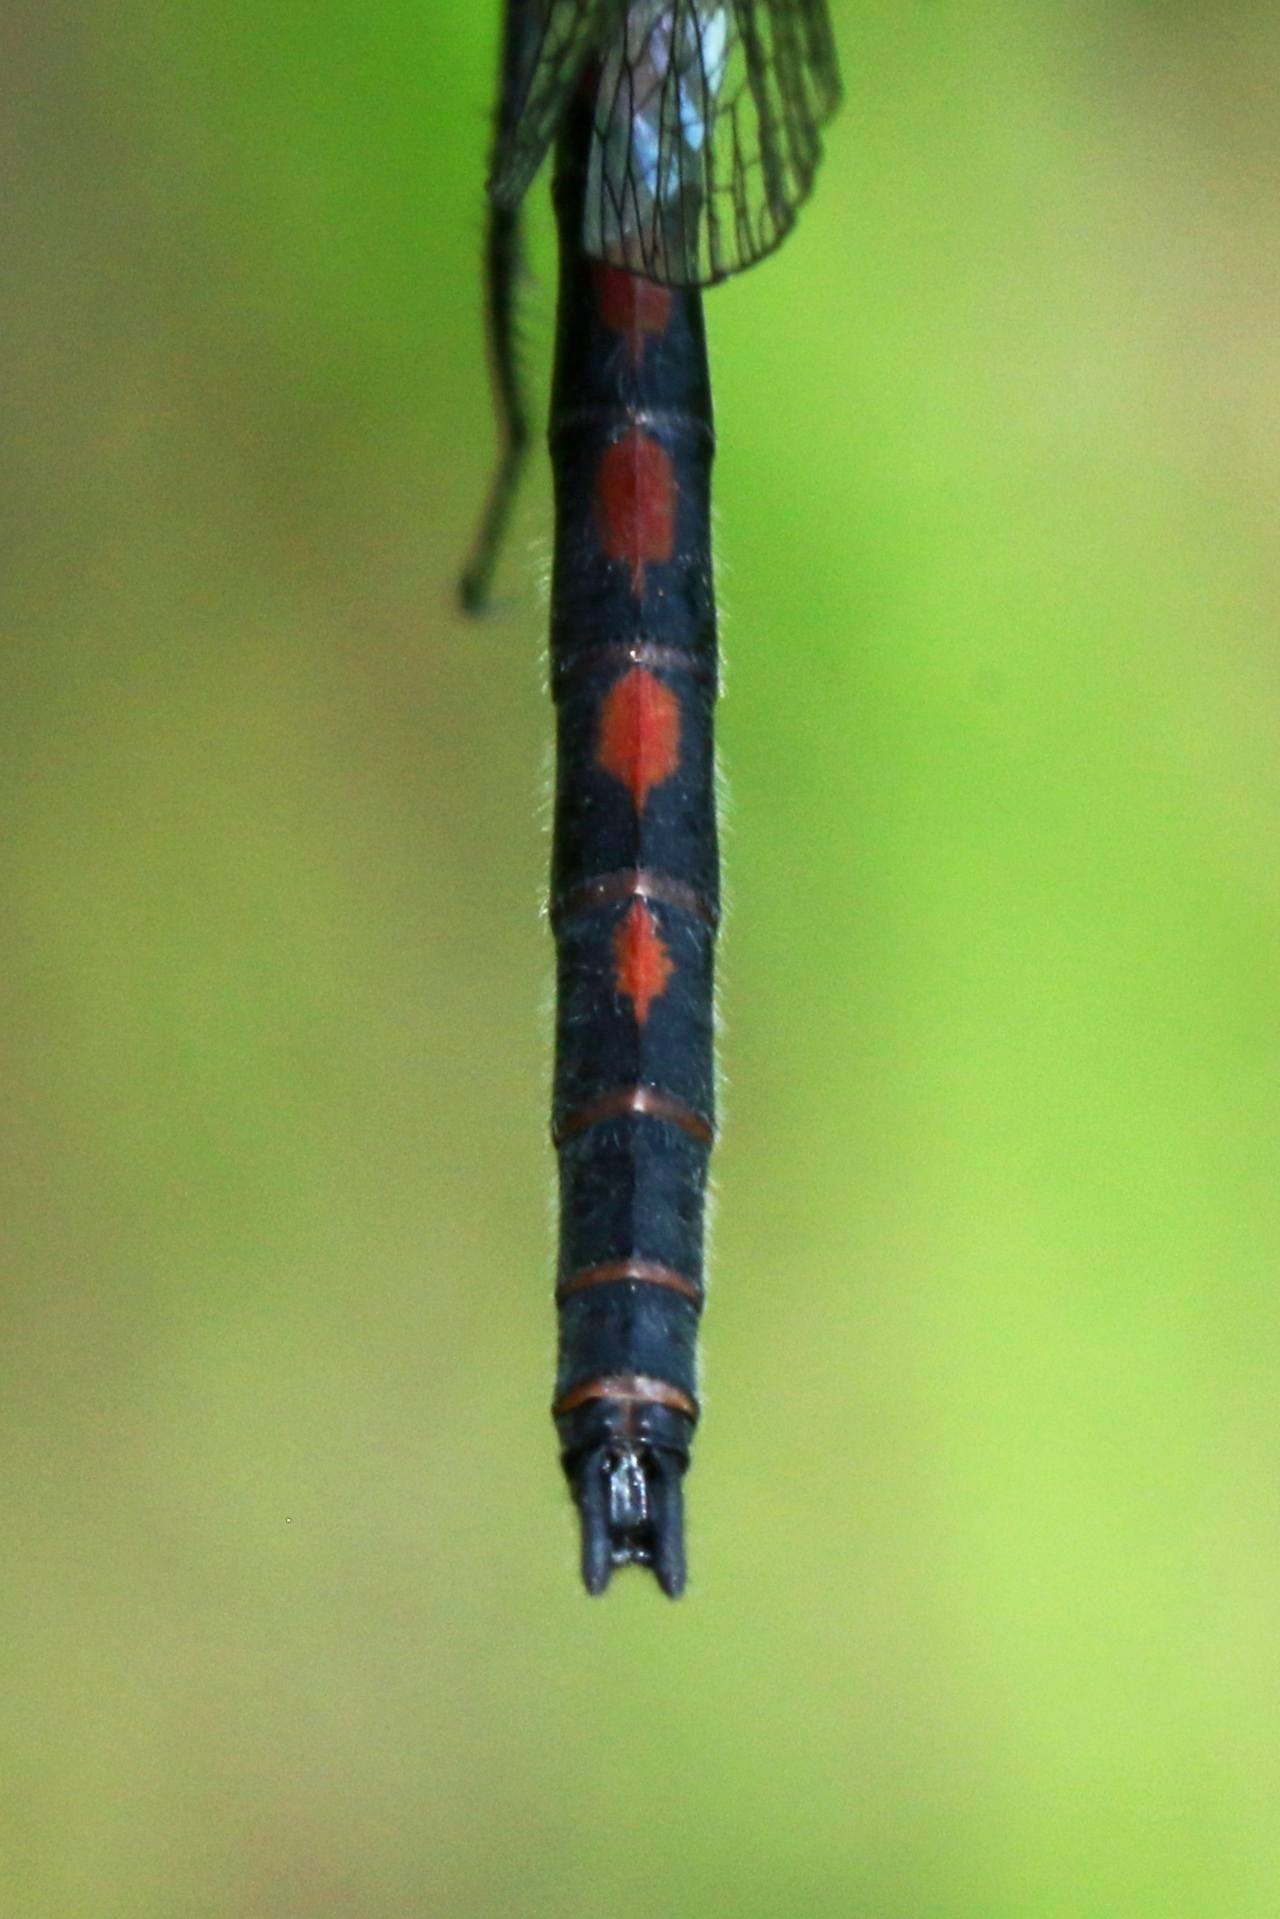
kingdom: Animalia
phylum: Arthropoda
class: Insecta
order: Odonata
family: Libellulidae
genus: Leucorrhinia
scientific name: Leucorrhinia hudsonica
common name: Hudsonian whiteface
